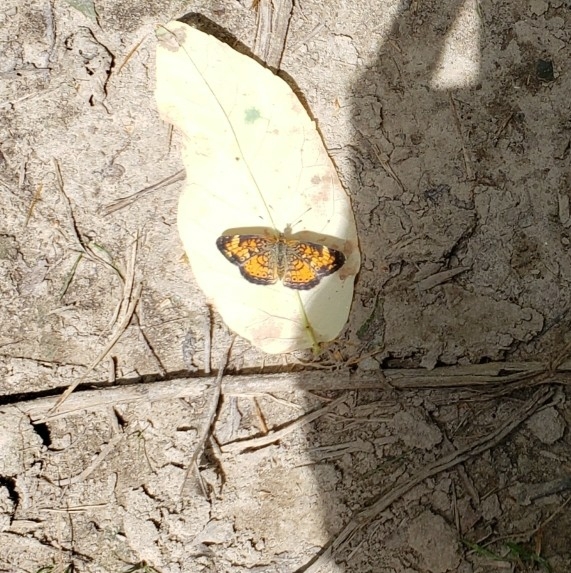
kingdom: Animalia
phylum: Arthropoda
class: Insecta
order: Lepidoptera
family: Nymphalidae
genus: Phyciodes
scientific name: Phyciodes tharos
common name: Pearl crescent
